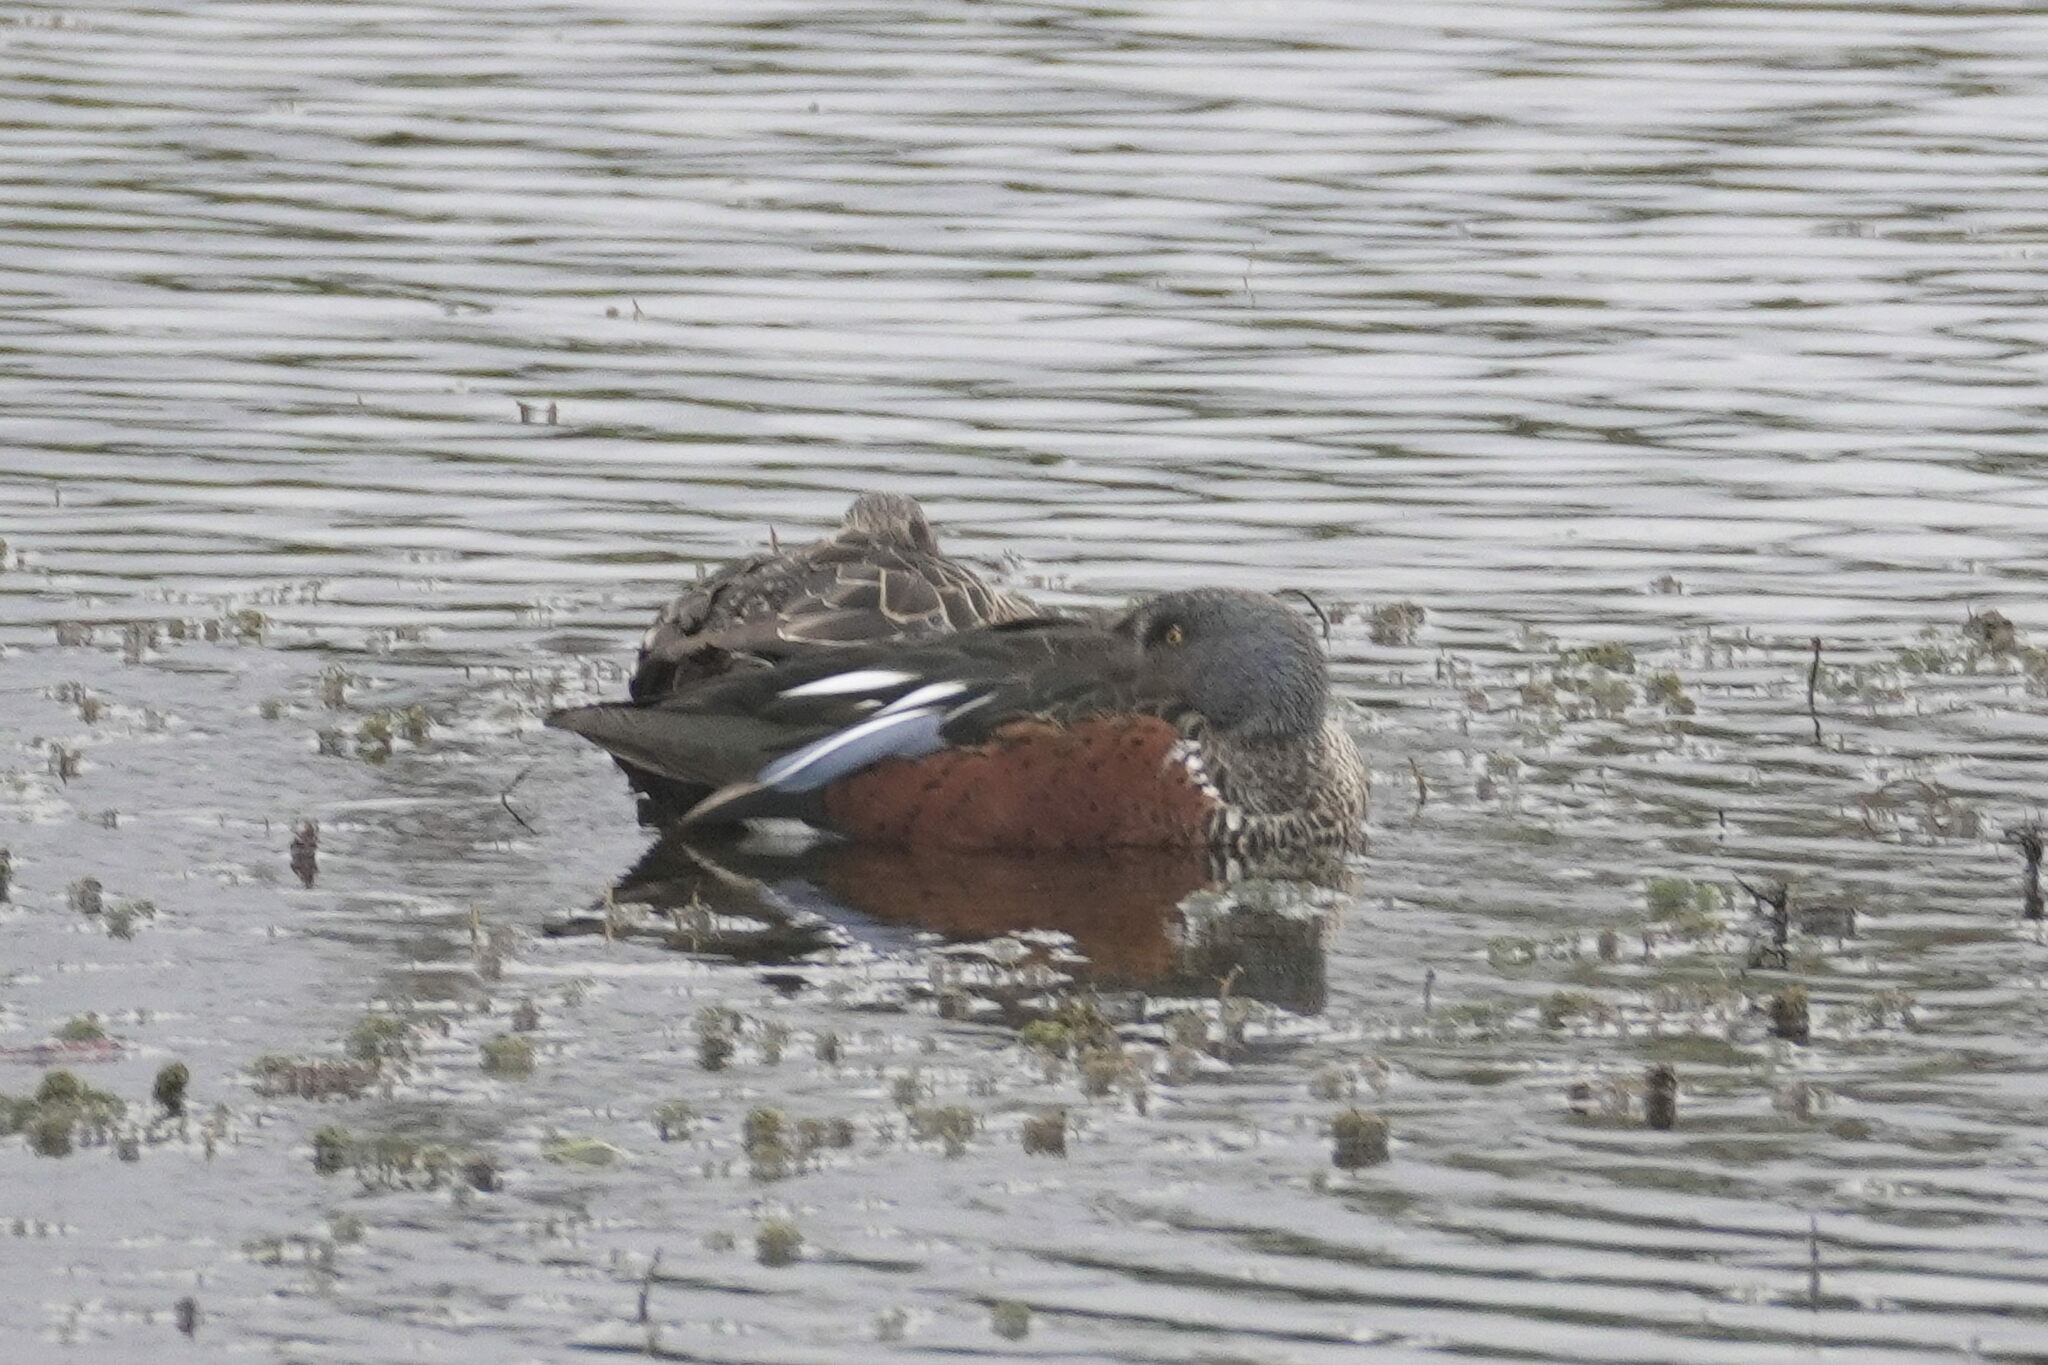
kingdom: Animalia
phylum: Chordata
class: Aves
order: Anseriformes
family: Anatidae
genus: Spatula
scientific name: Spatula rhynchotis
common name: Australian shoveler
